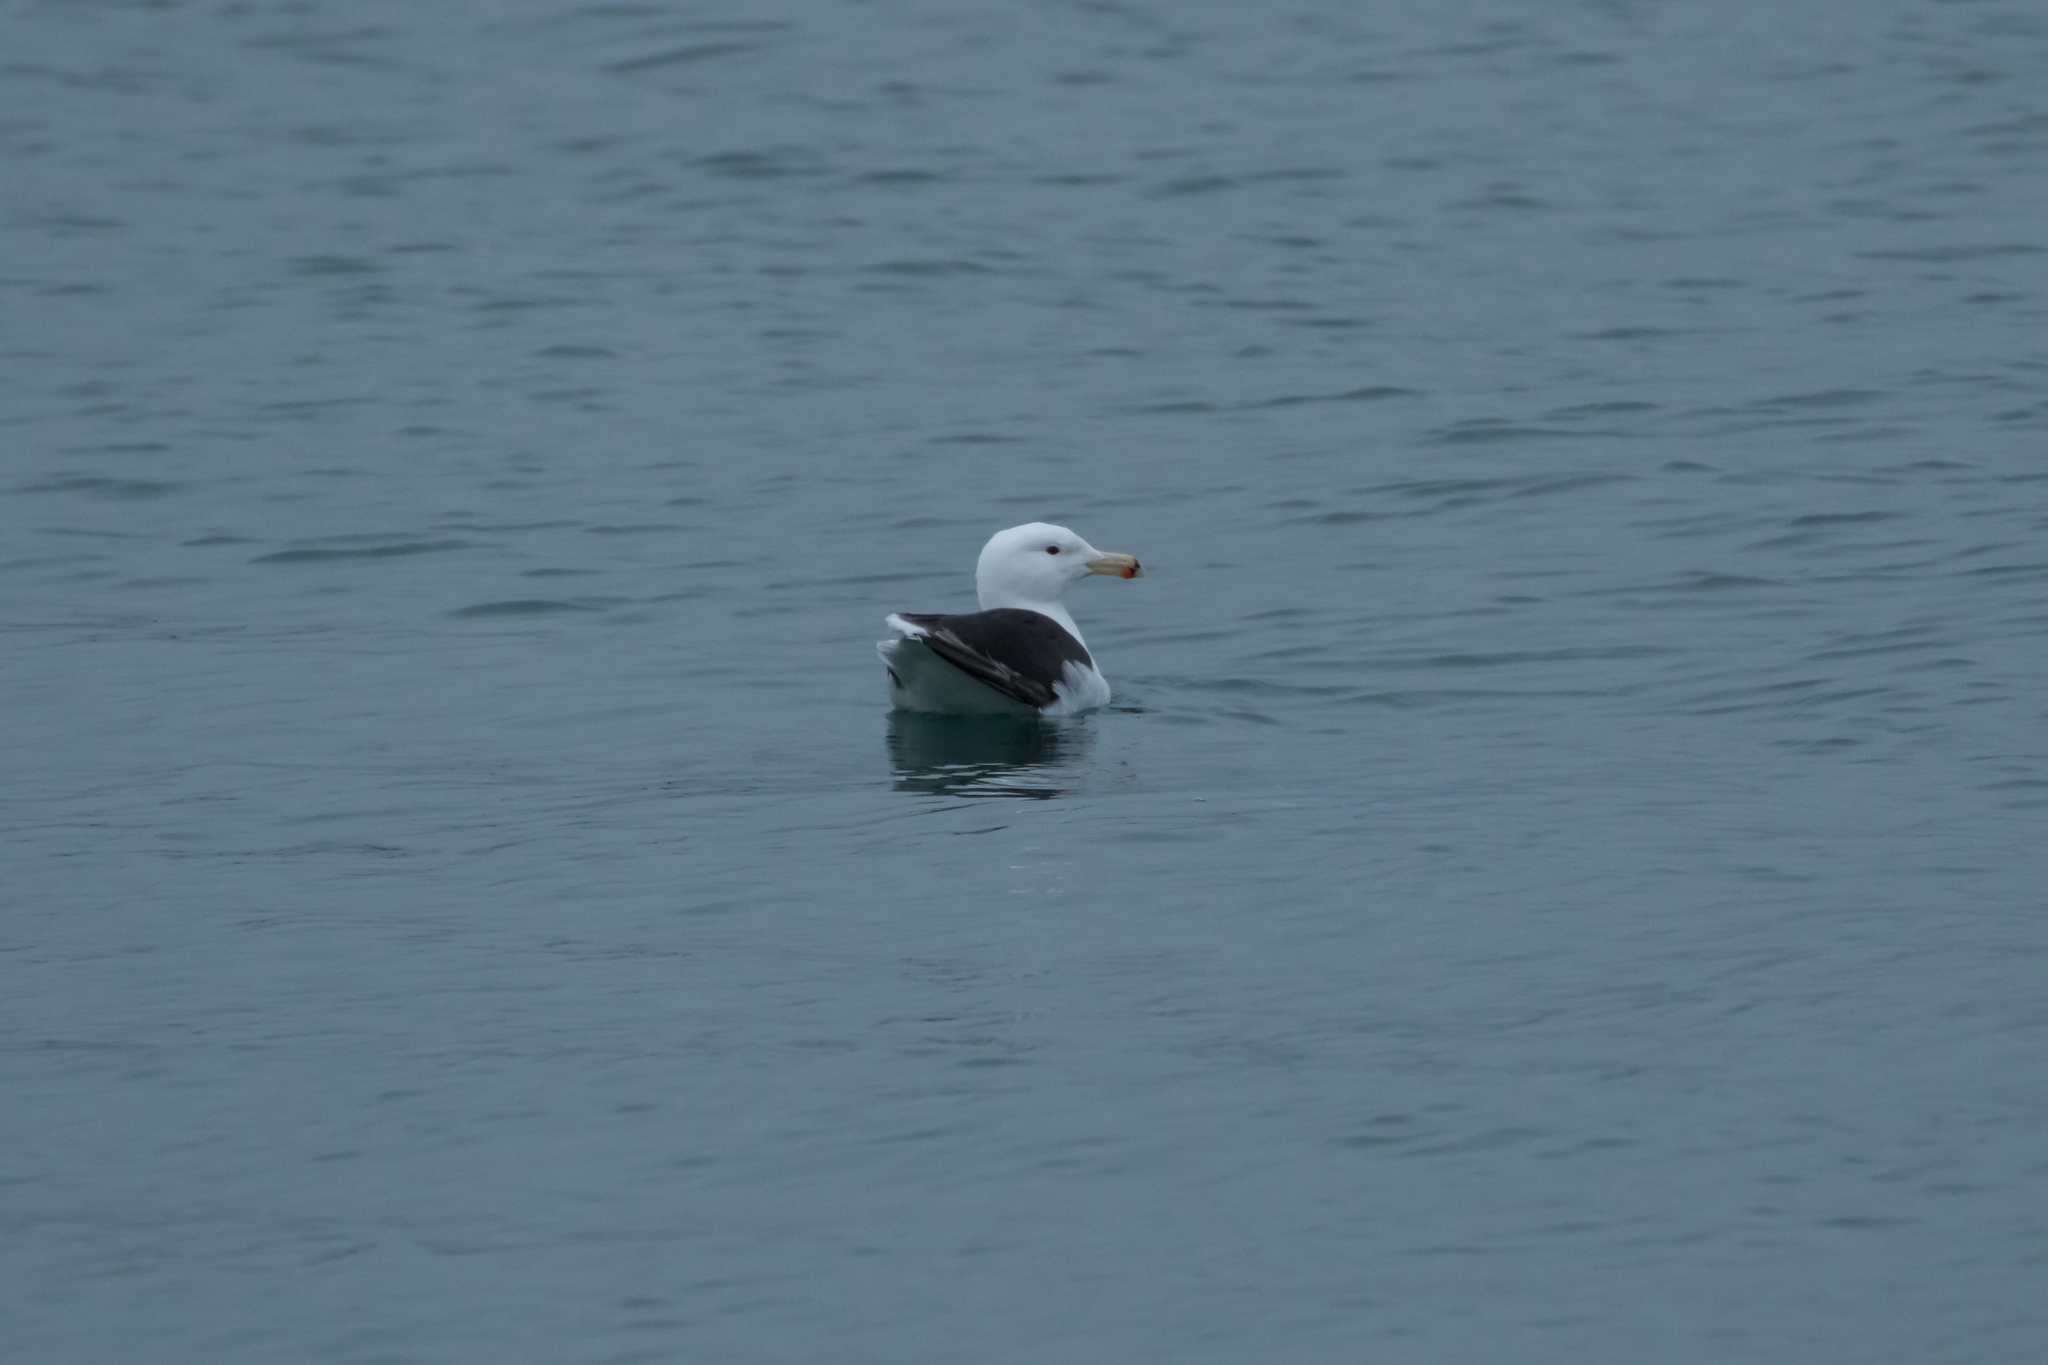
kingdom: Animalia
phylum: Chordata
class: Aves
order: Charadriiformes
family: Laridae
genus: Larus
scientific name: Larus marinus
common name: Great black-backed gull
